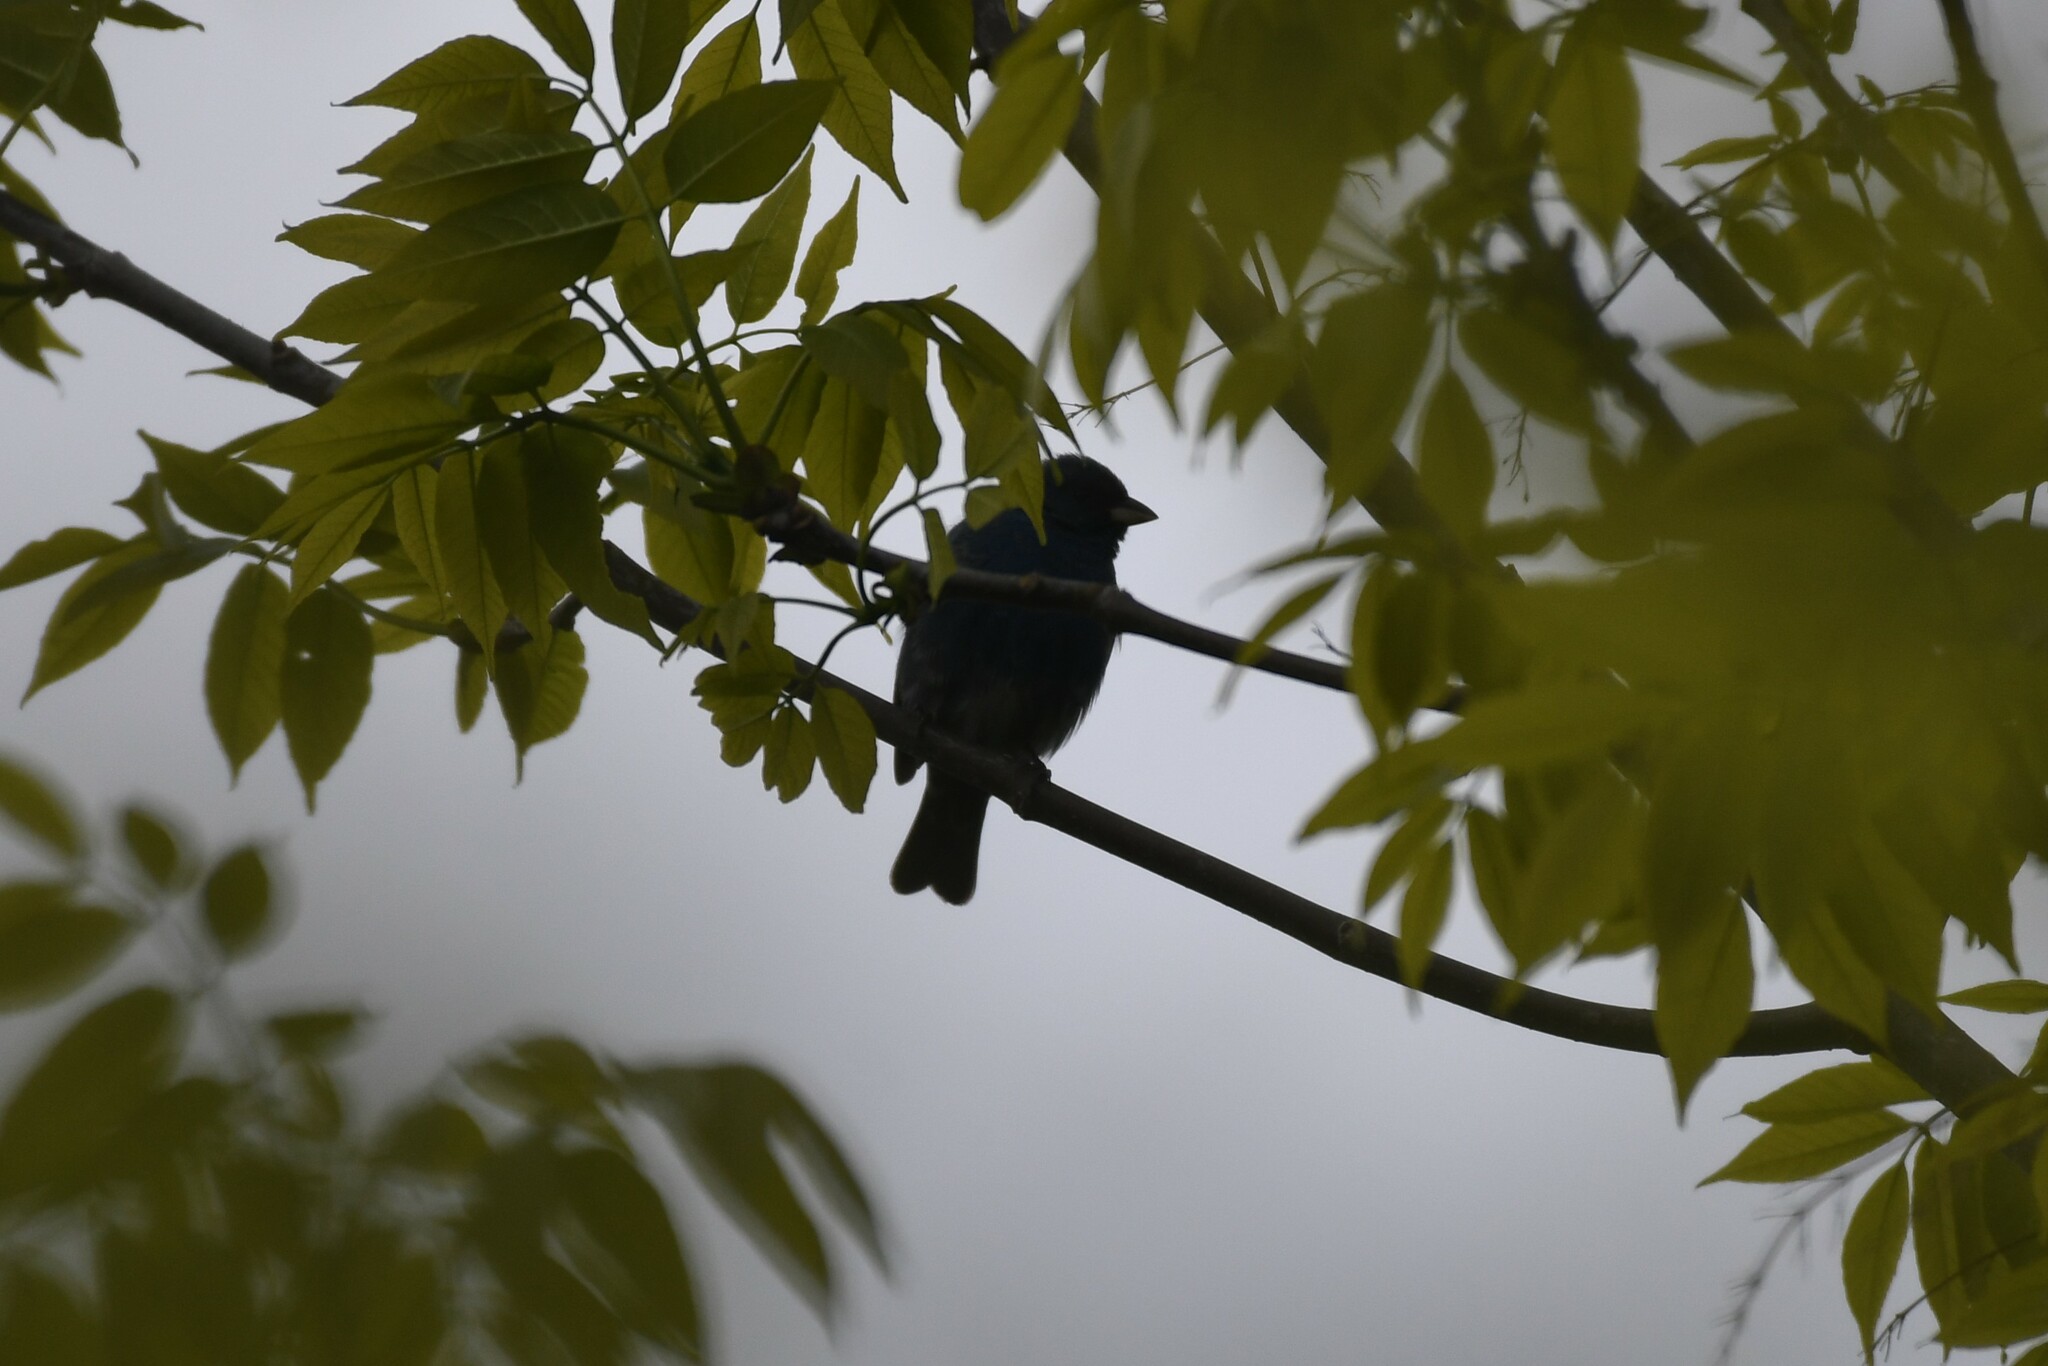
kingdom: Animalia
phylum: Chordata
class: Aves
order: Passeriformes
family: Cardinalidae
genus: Passerina
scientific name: Passerina cyanea
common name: Indigo bunting
